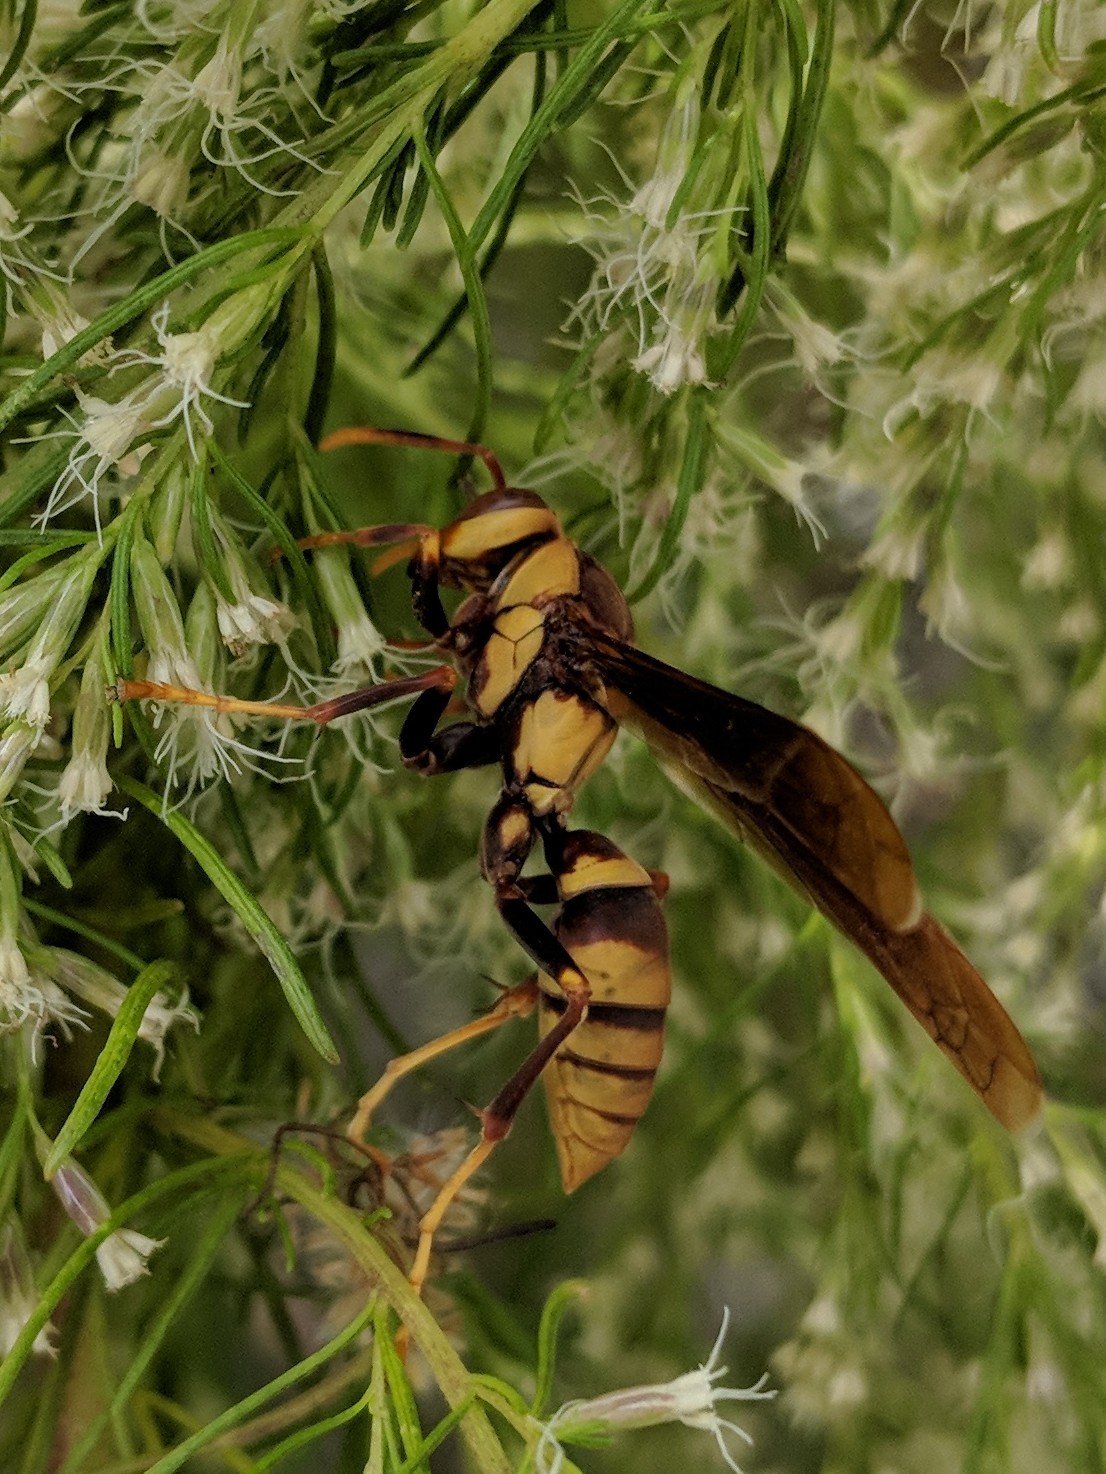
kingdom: Animalia
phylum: Arthropoda
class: Insecta
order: Hymenoptera
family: Eumenidae
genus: Polistes
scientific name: Polistes major
